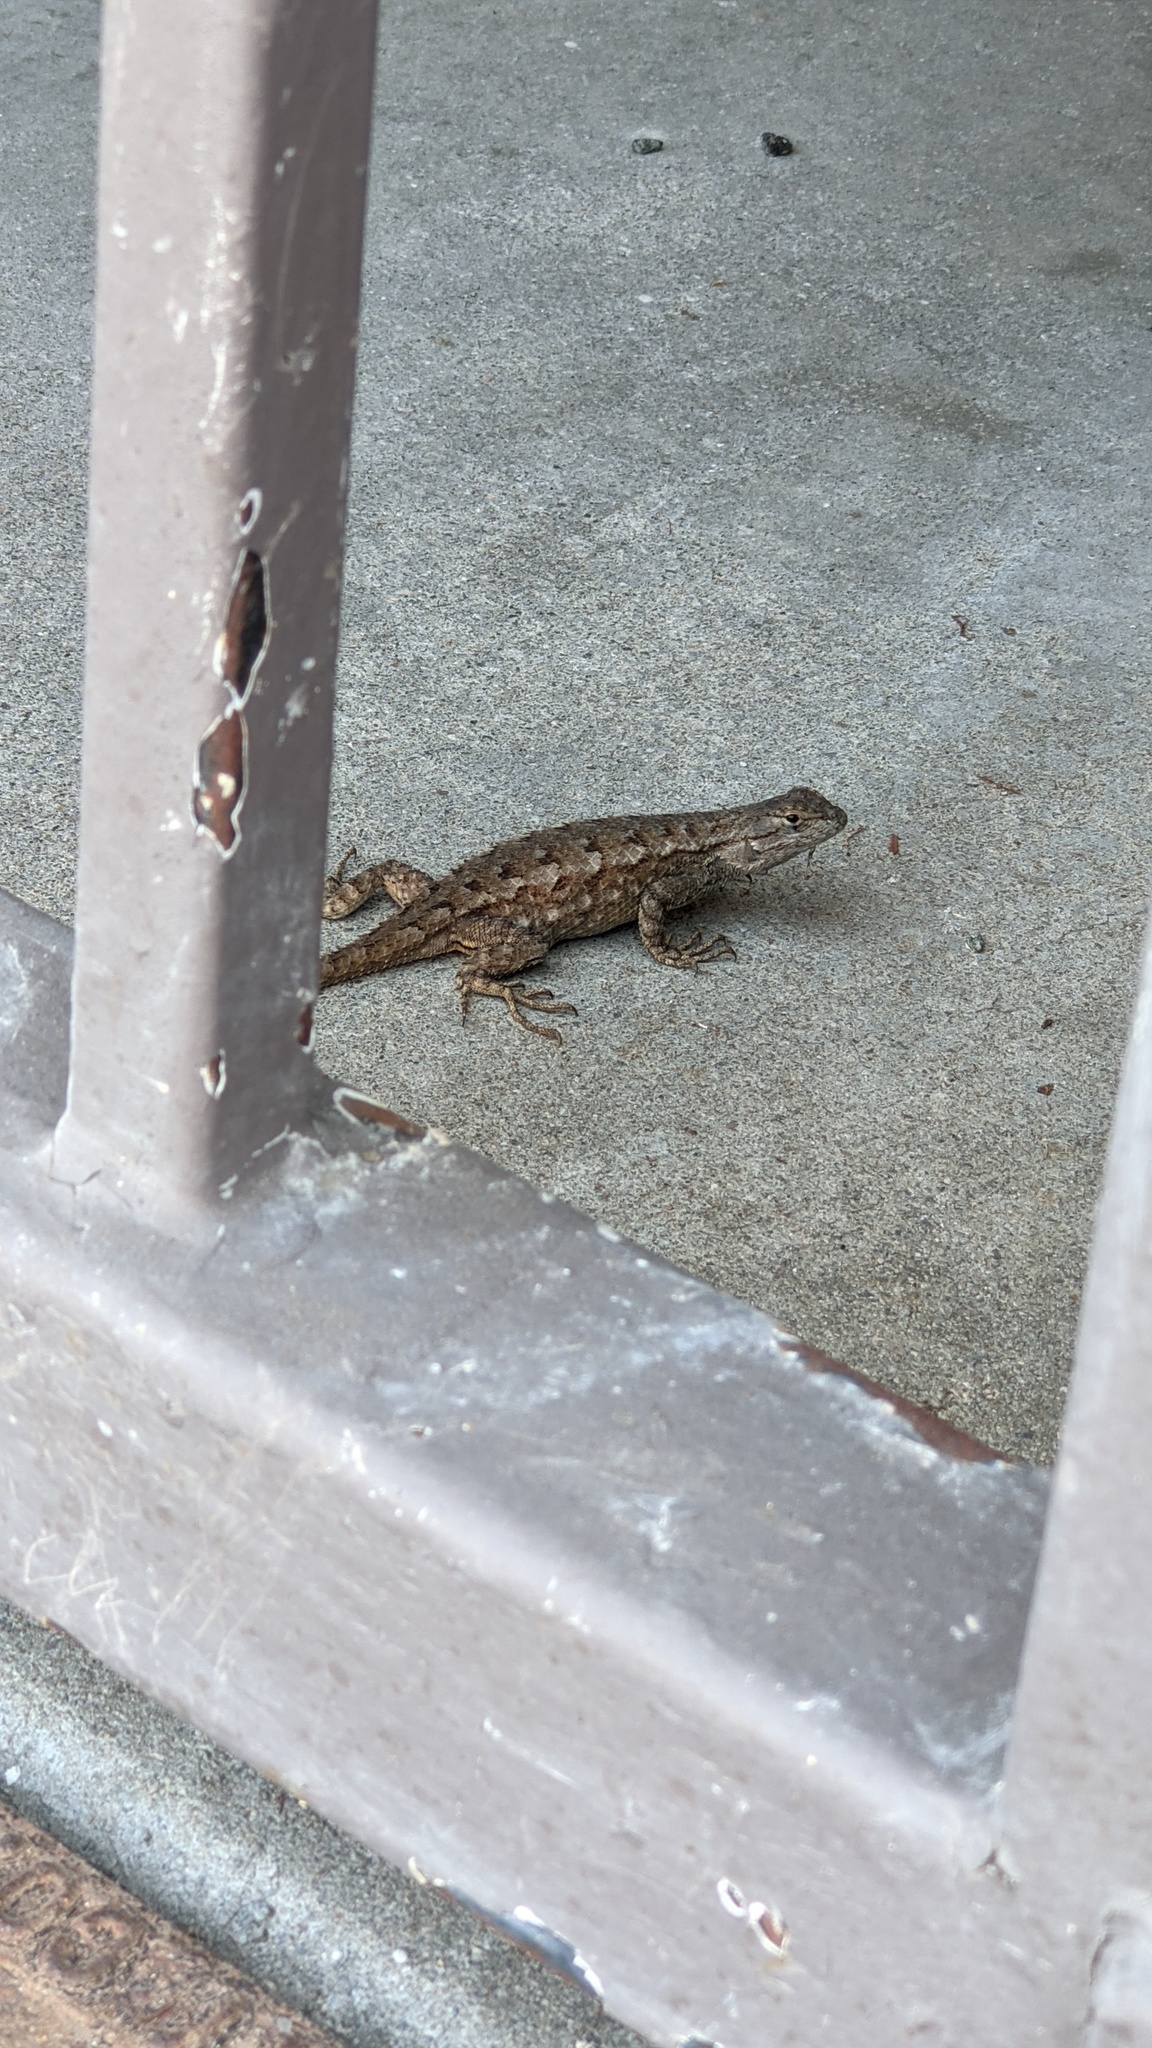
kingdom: Animalia
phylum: Chordata
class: Squamata
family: Phrynosomatidae
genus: Sceloporus
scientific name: Sceloporus occidentalis
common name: Western fence lizard
